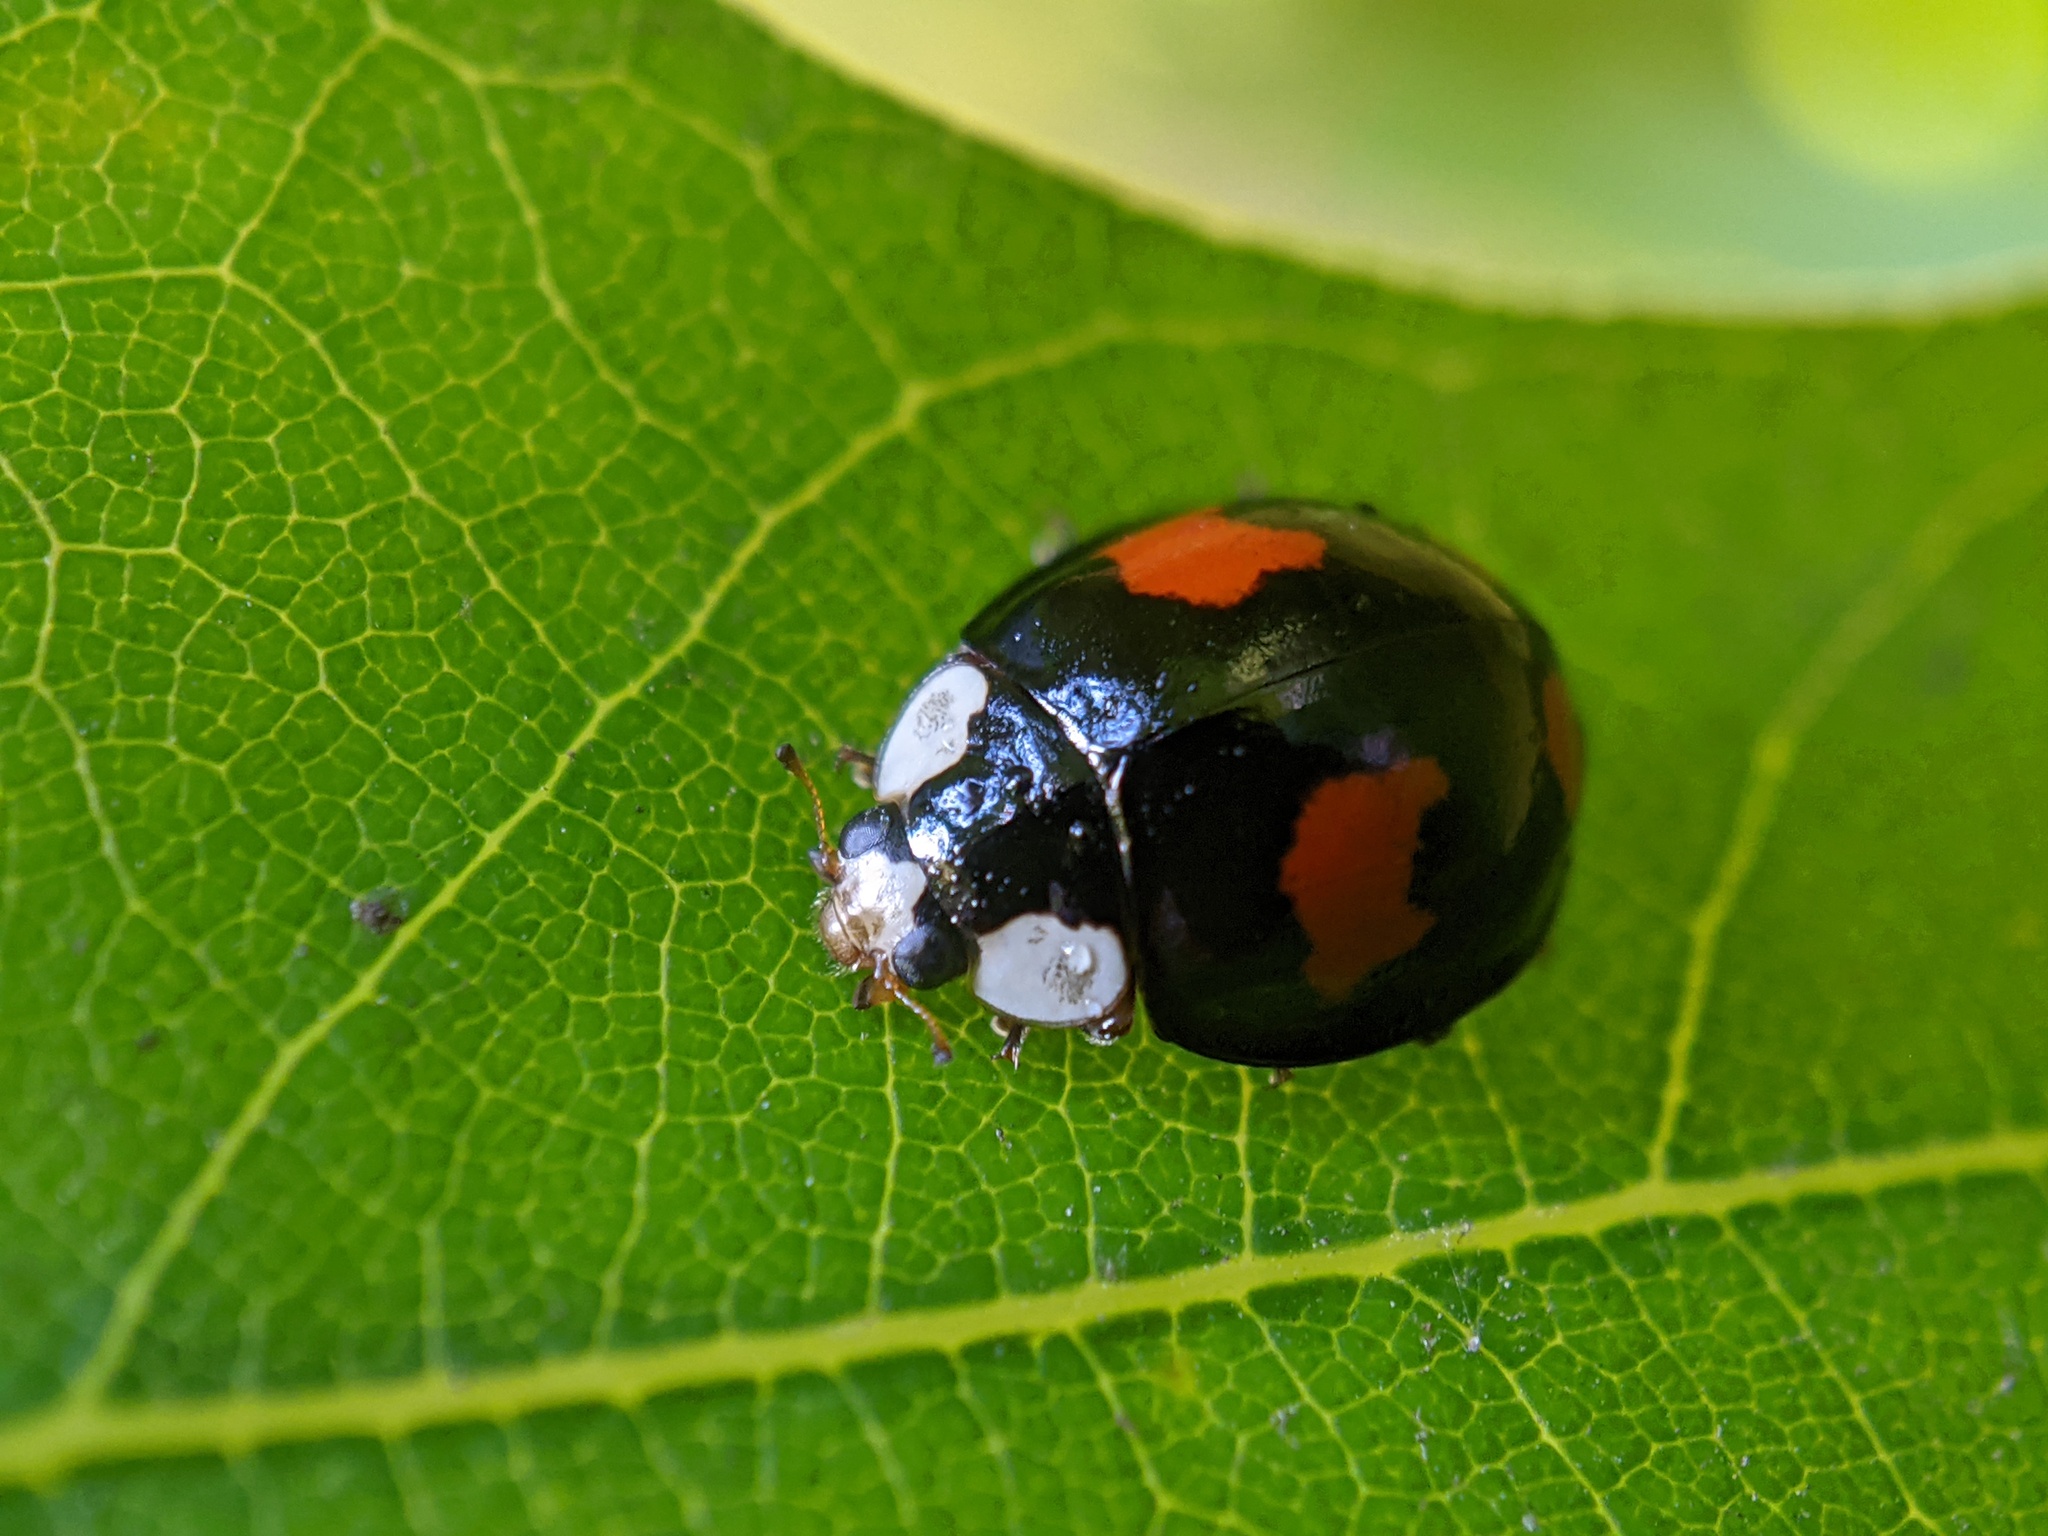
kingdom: Animalia
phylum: Arthropoda
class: Insecta
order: Coleoptera
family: Coccinellidae
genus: Harmonia
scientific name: Harmonia axyridis
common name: Harlequin ladybird
